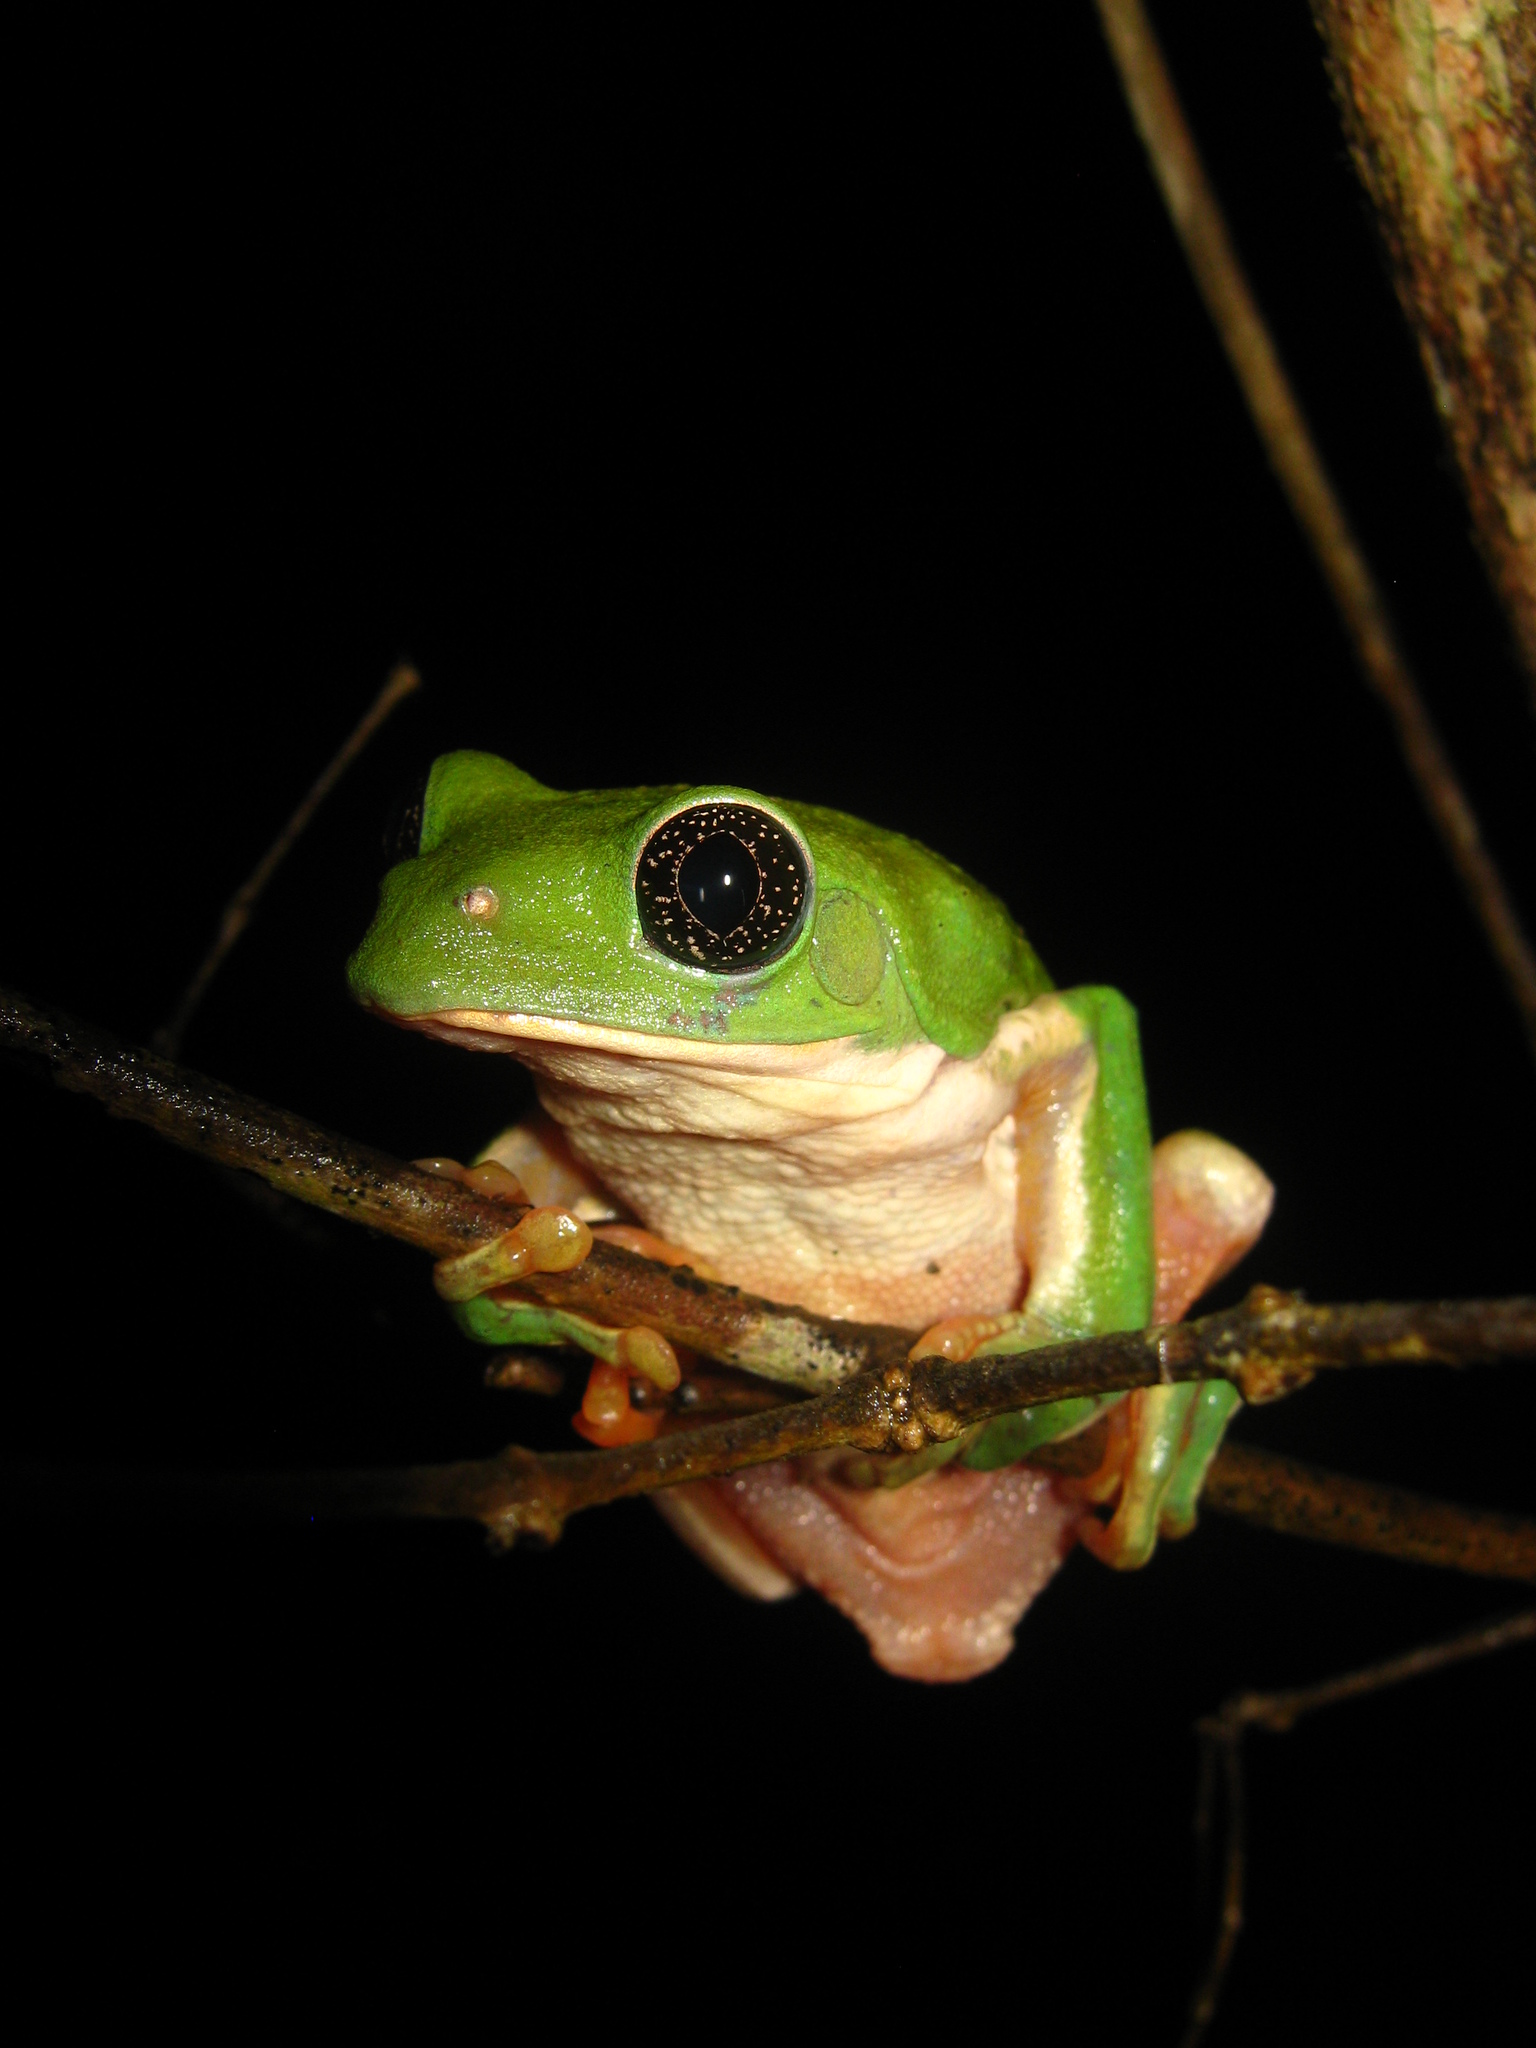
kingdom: Animalia
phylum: Chordata
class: Amphibia
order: Anura
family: Phyllomedusidae
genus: Agalychnis
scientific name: Agalychnis dacnicolor
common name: Mexican giant tree frog
